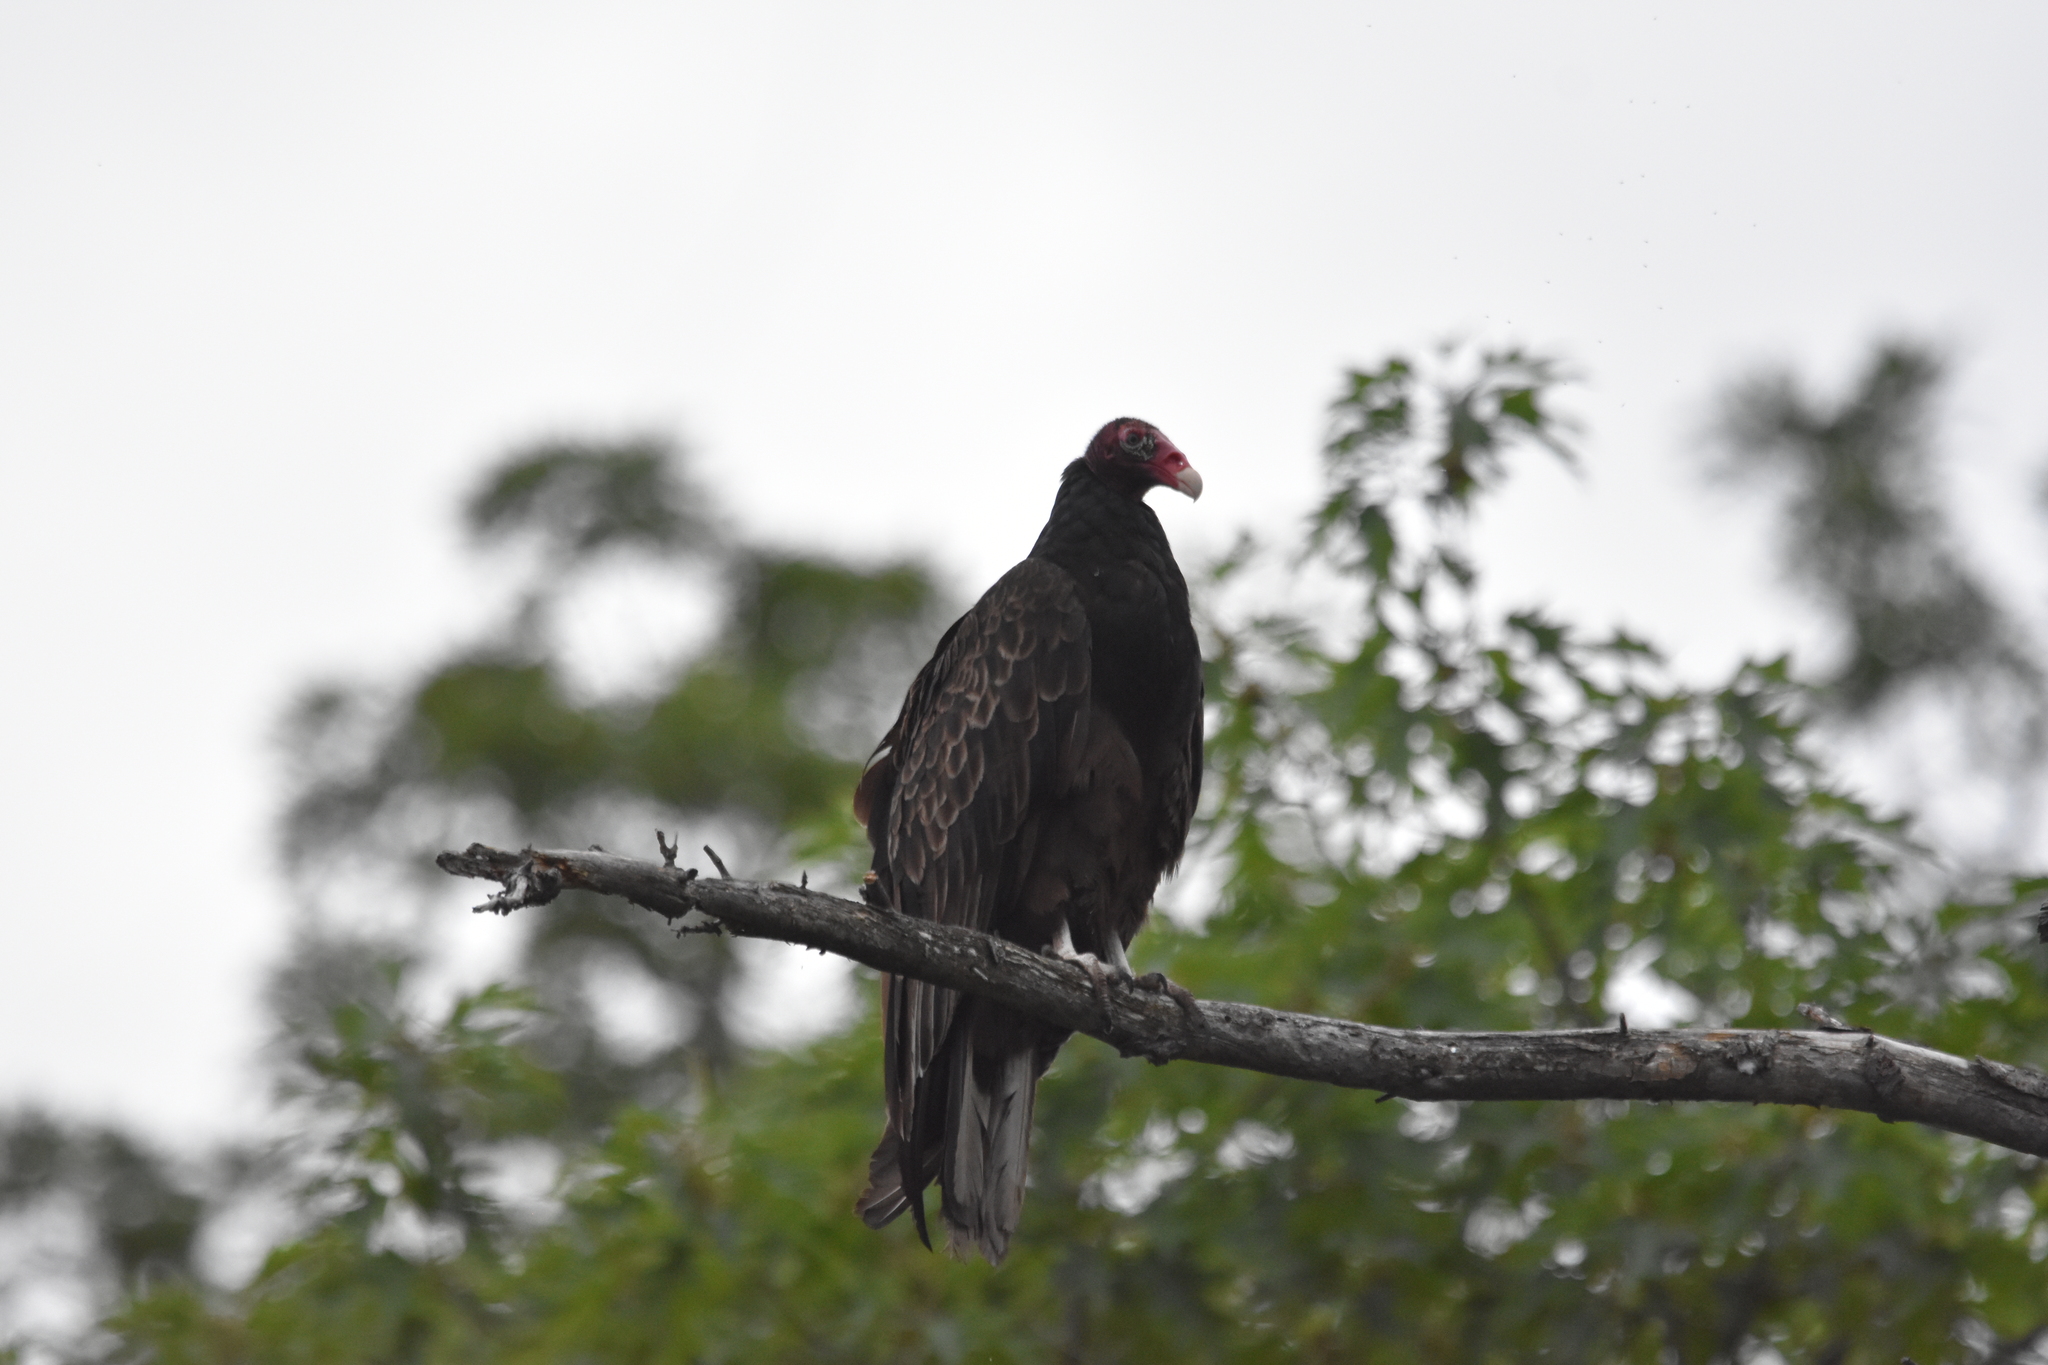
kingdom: Animalia
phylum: Chordata
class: Aves
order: Accipitriformes
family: Cathartidae
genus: Cathartes
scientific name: Cathartes aura
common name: Turkey vulture
